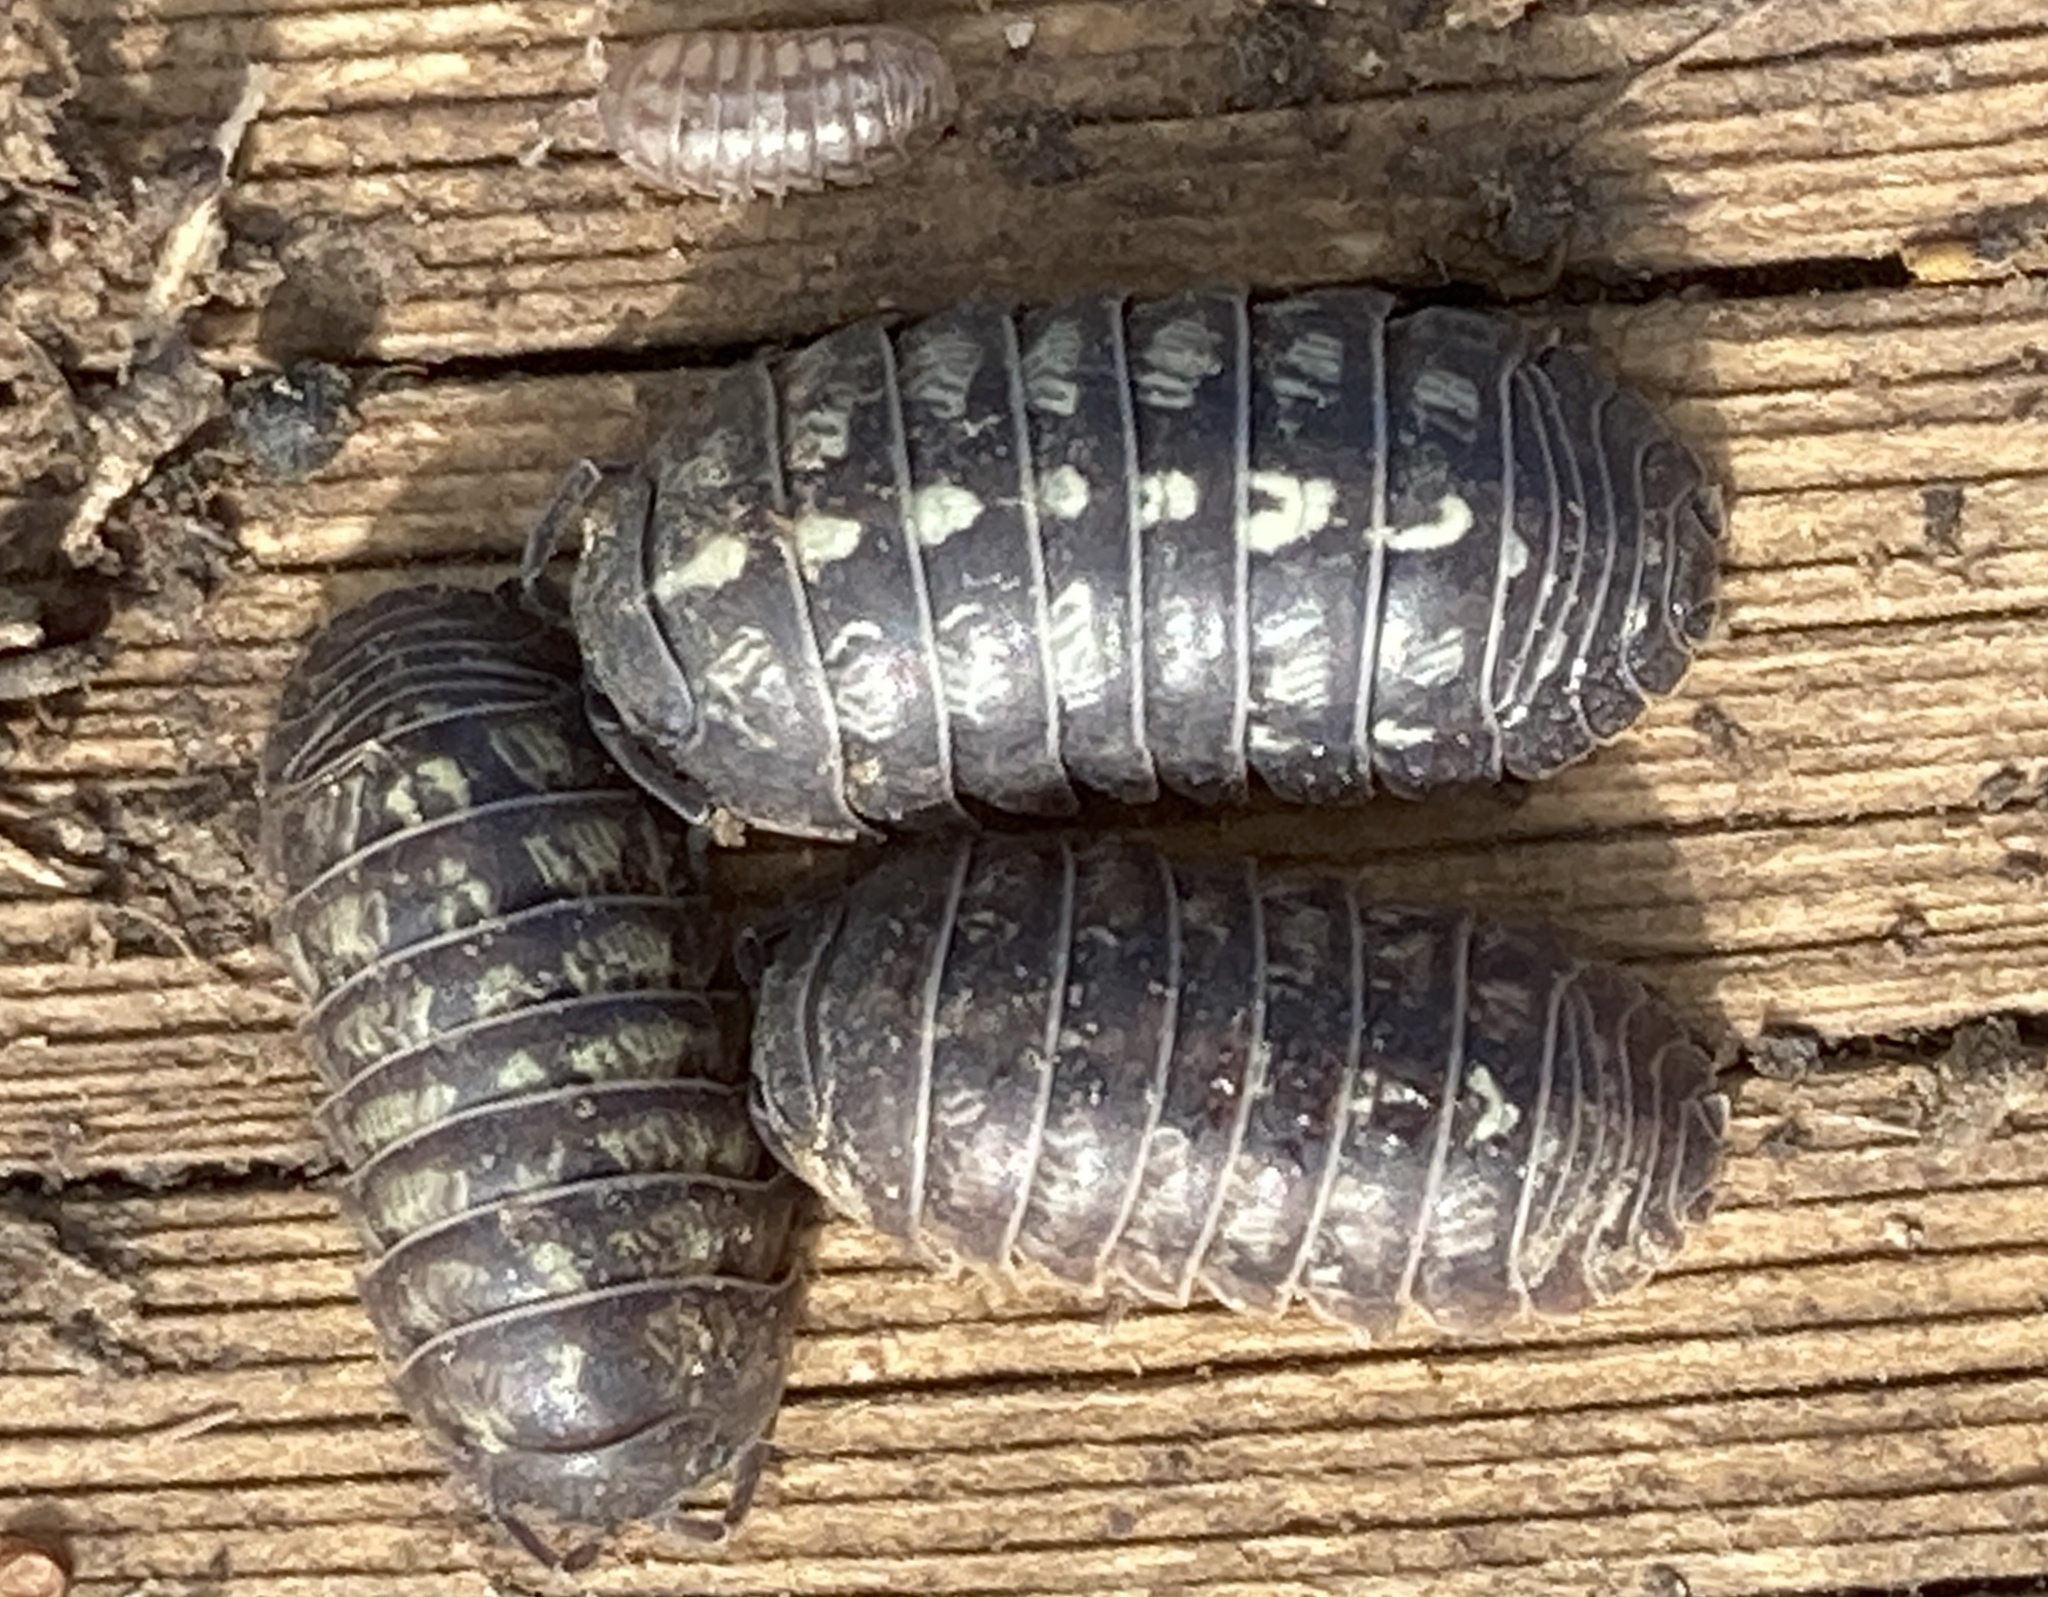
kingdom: Animalia
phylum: Arthropoda
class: Malacostraca
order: Isopoda
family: Armadillidiidae
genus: Armadillidium
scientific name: Armadillidium vulgare
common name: Common pill woodlouse
